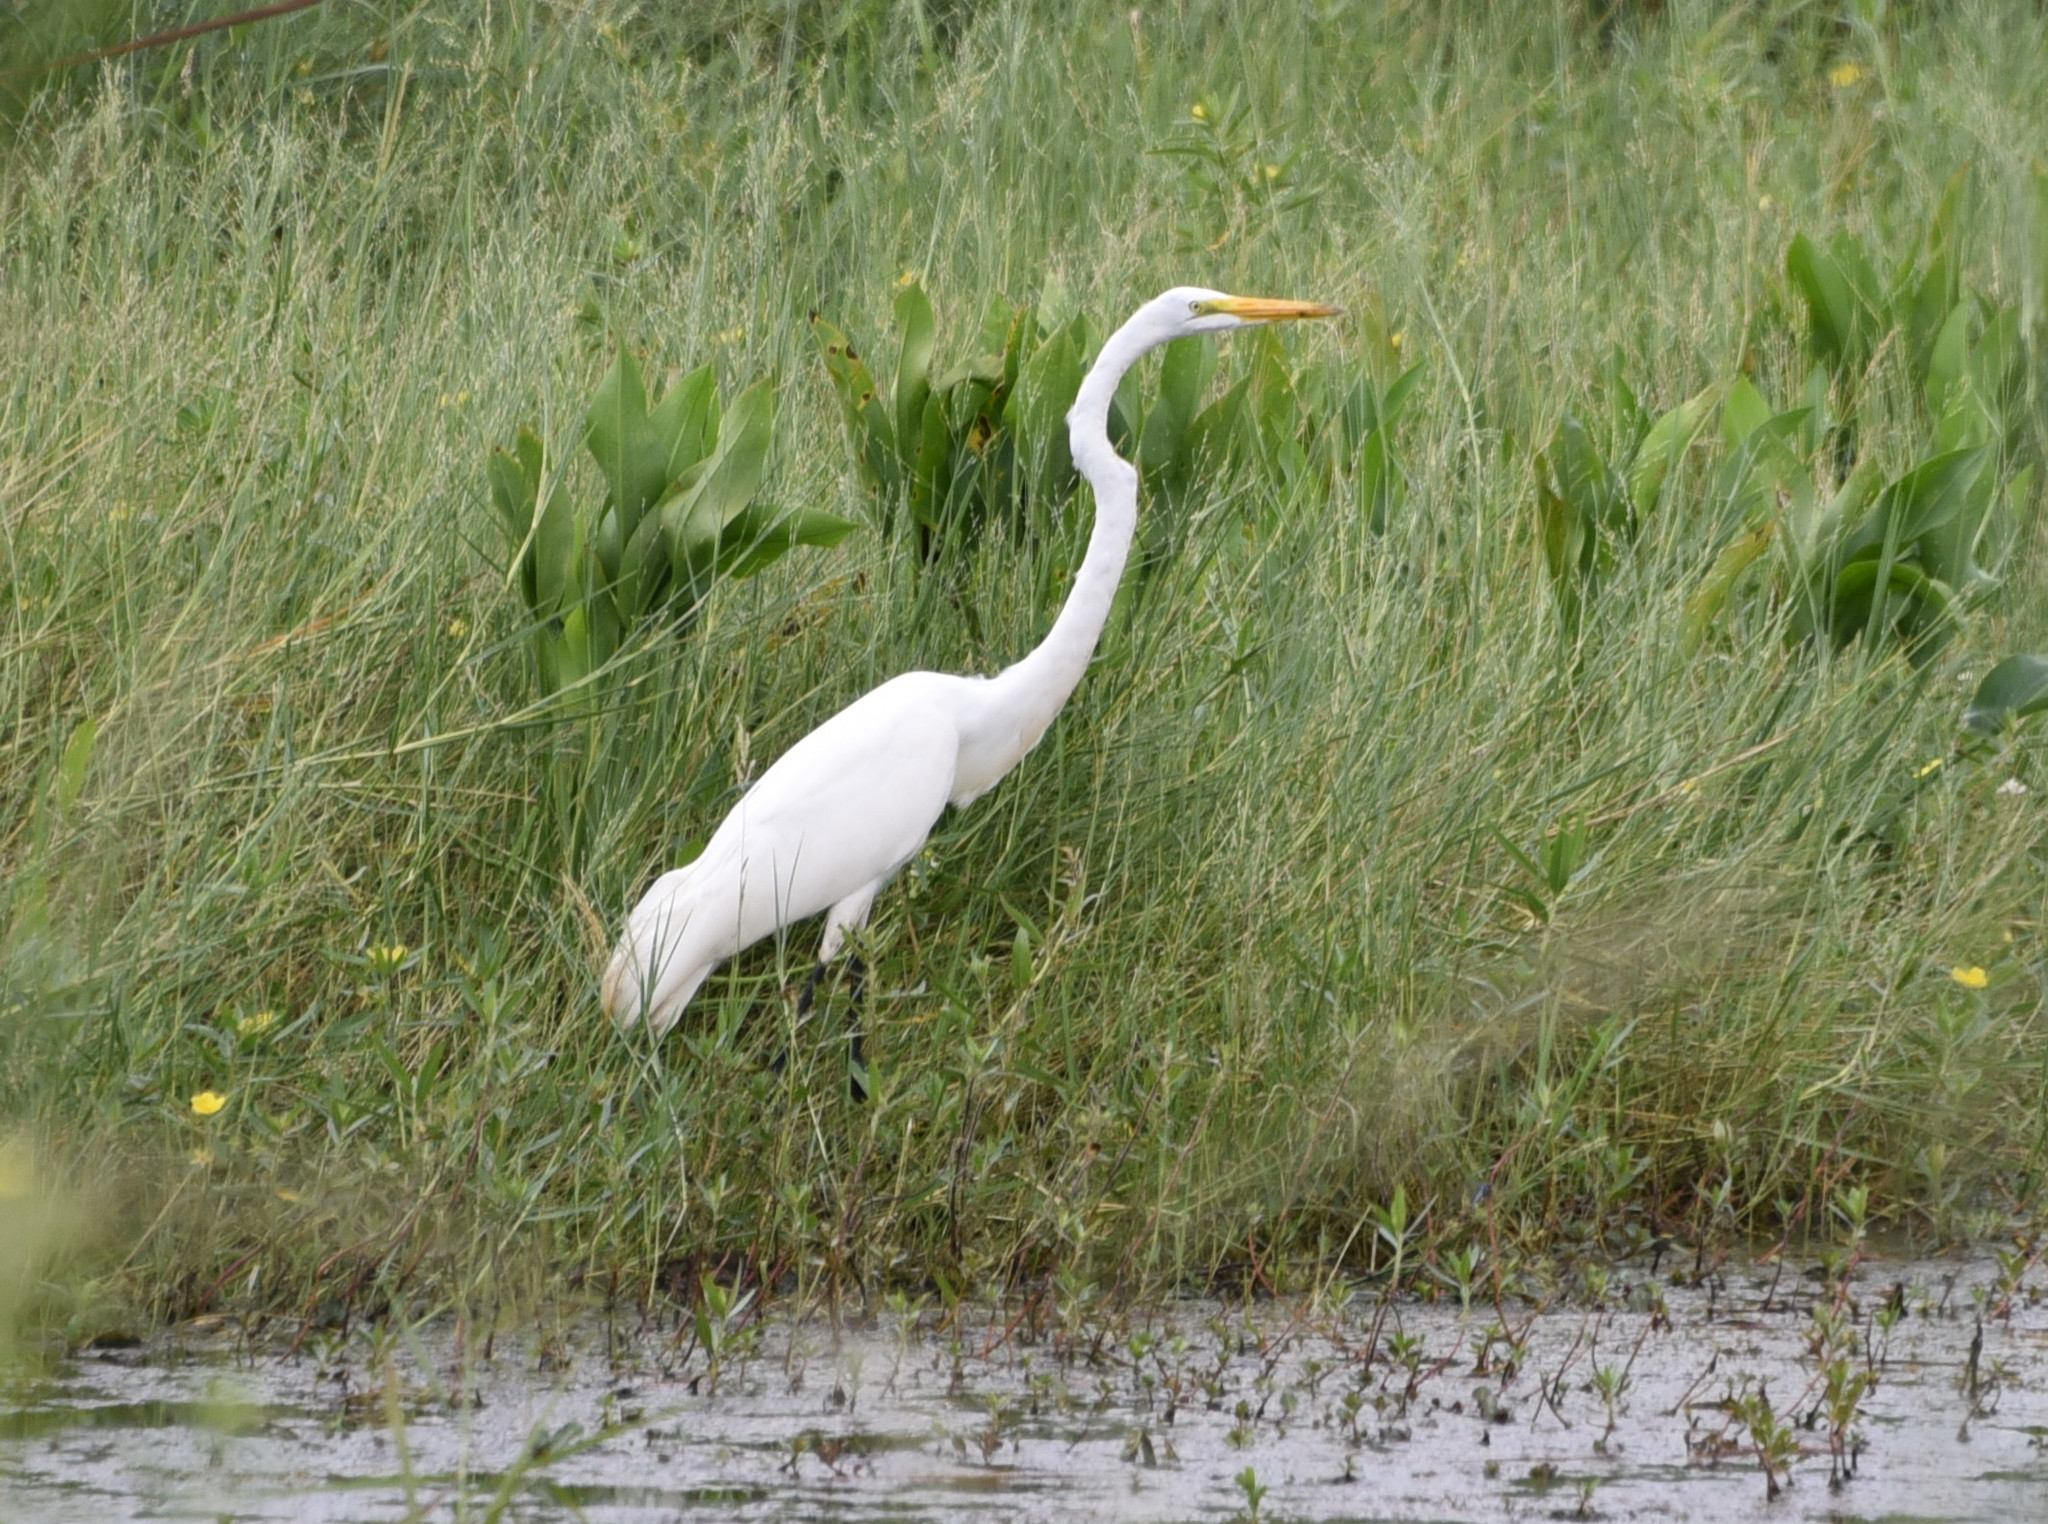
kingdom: Animalia
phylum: Chordata
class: Aves
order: Pelecaniformes
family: Ardeidae
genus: Ardea
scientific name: Ardea alba
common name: Great egret
